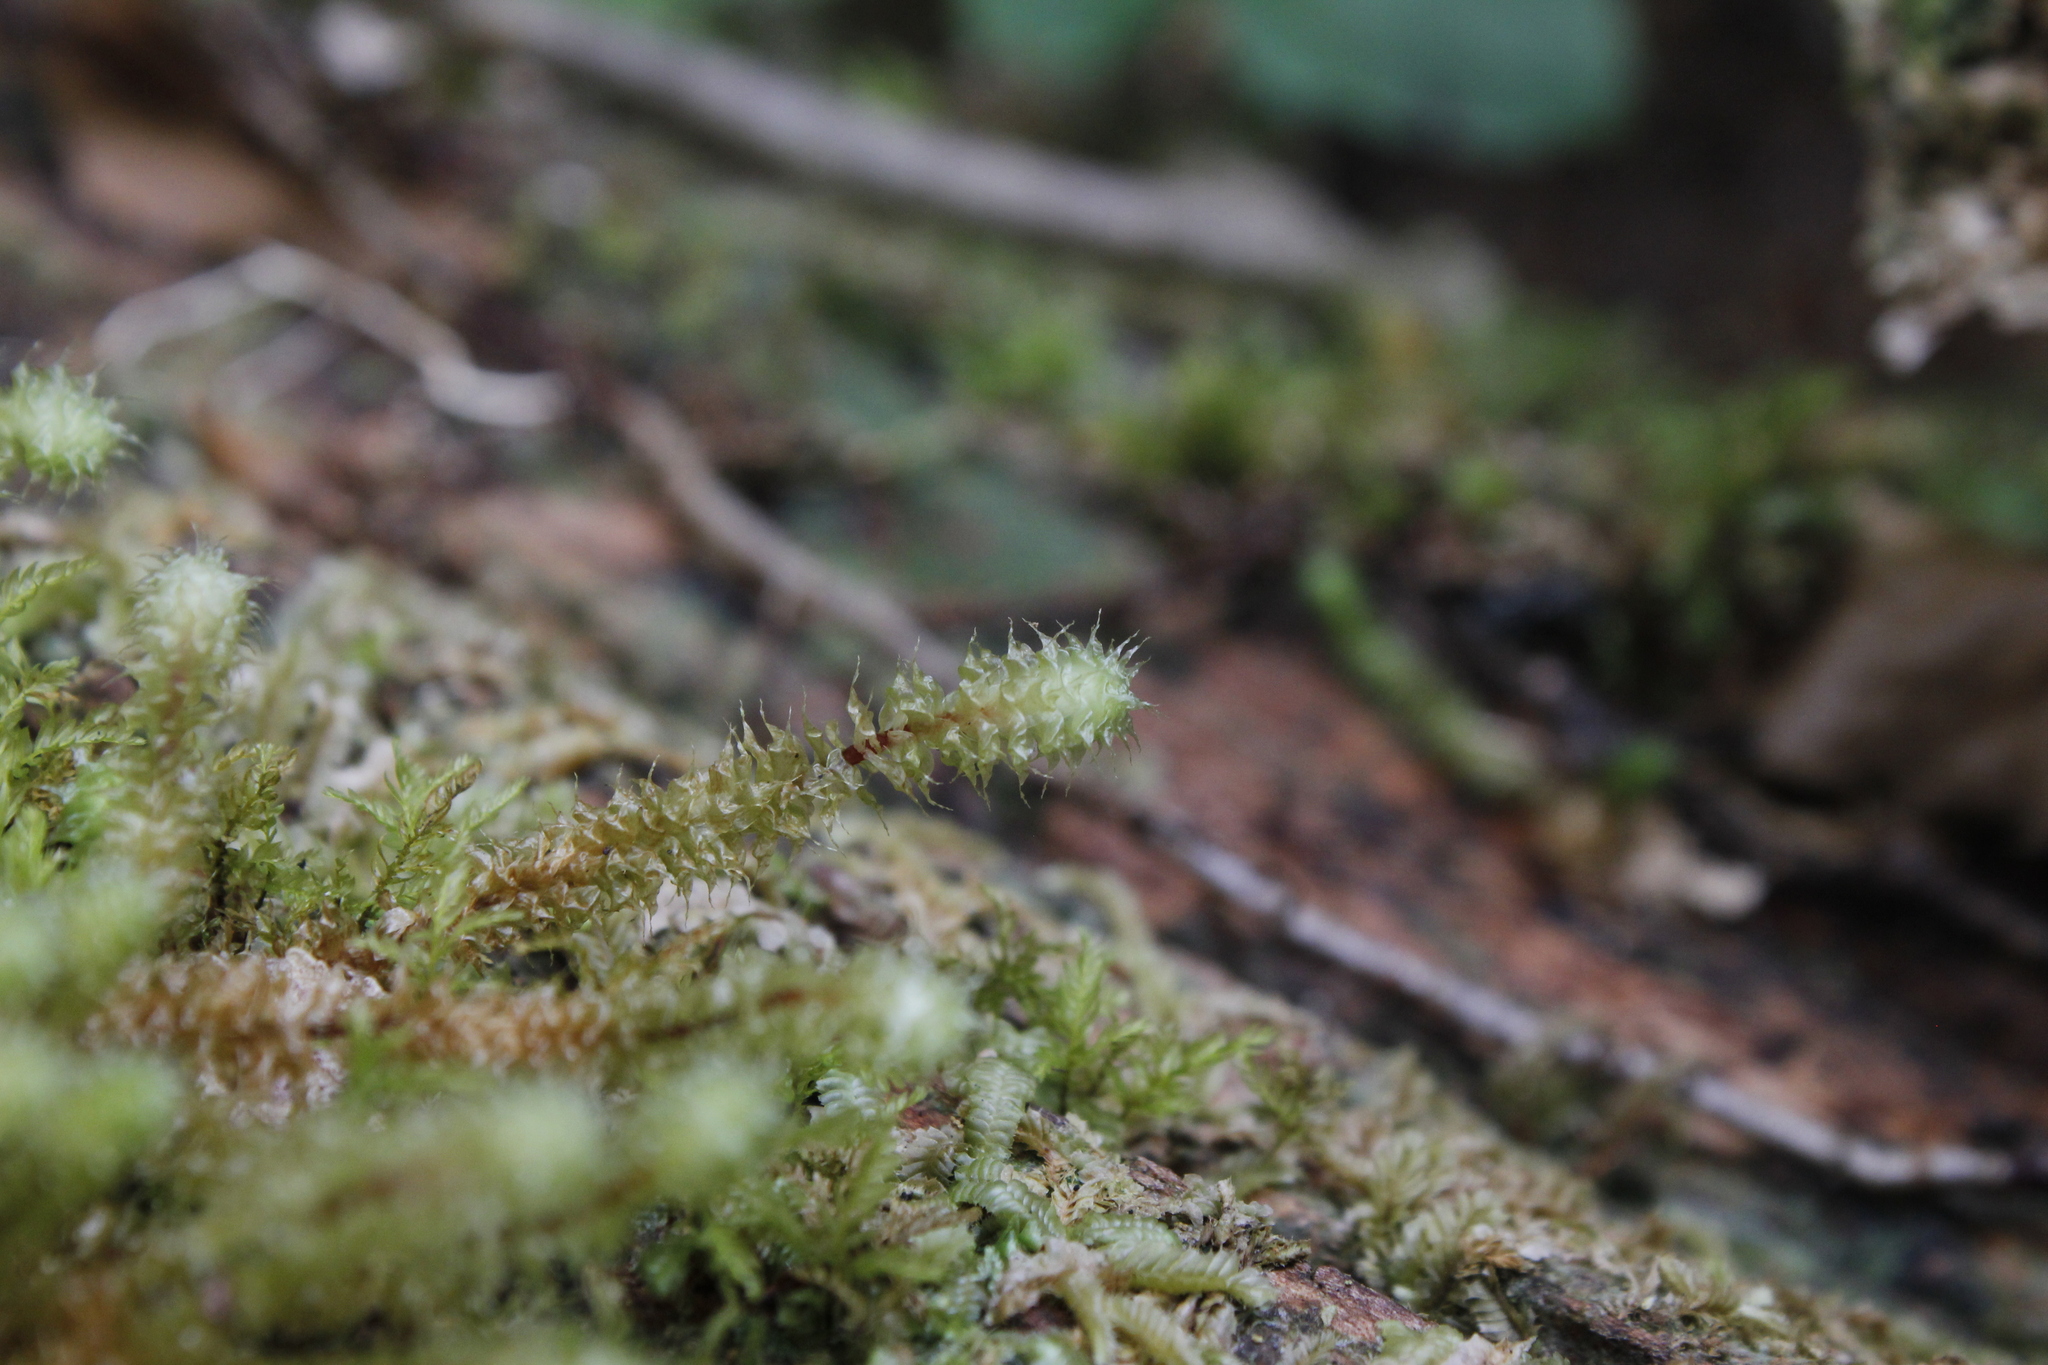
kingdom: Plantae
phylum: Bryophyta
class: Bryopsida
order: Ptychomniales
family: Ptychomniaceae
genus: Ptychomnion
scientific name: Ptychomnion aciculare
